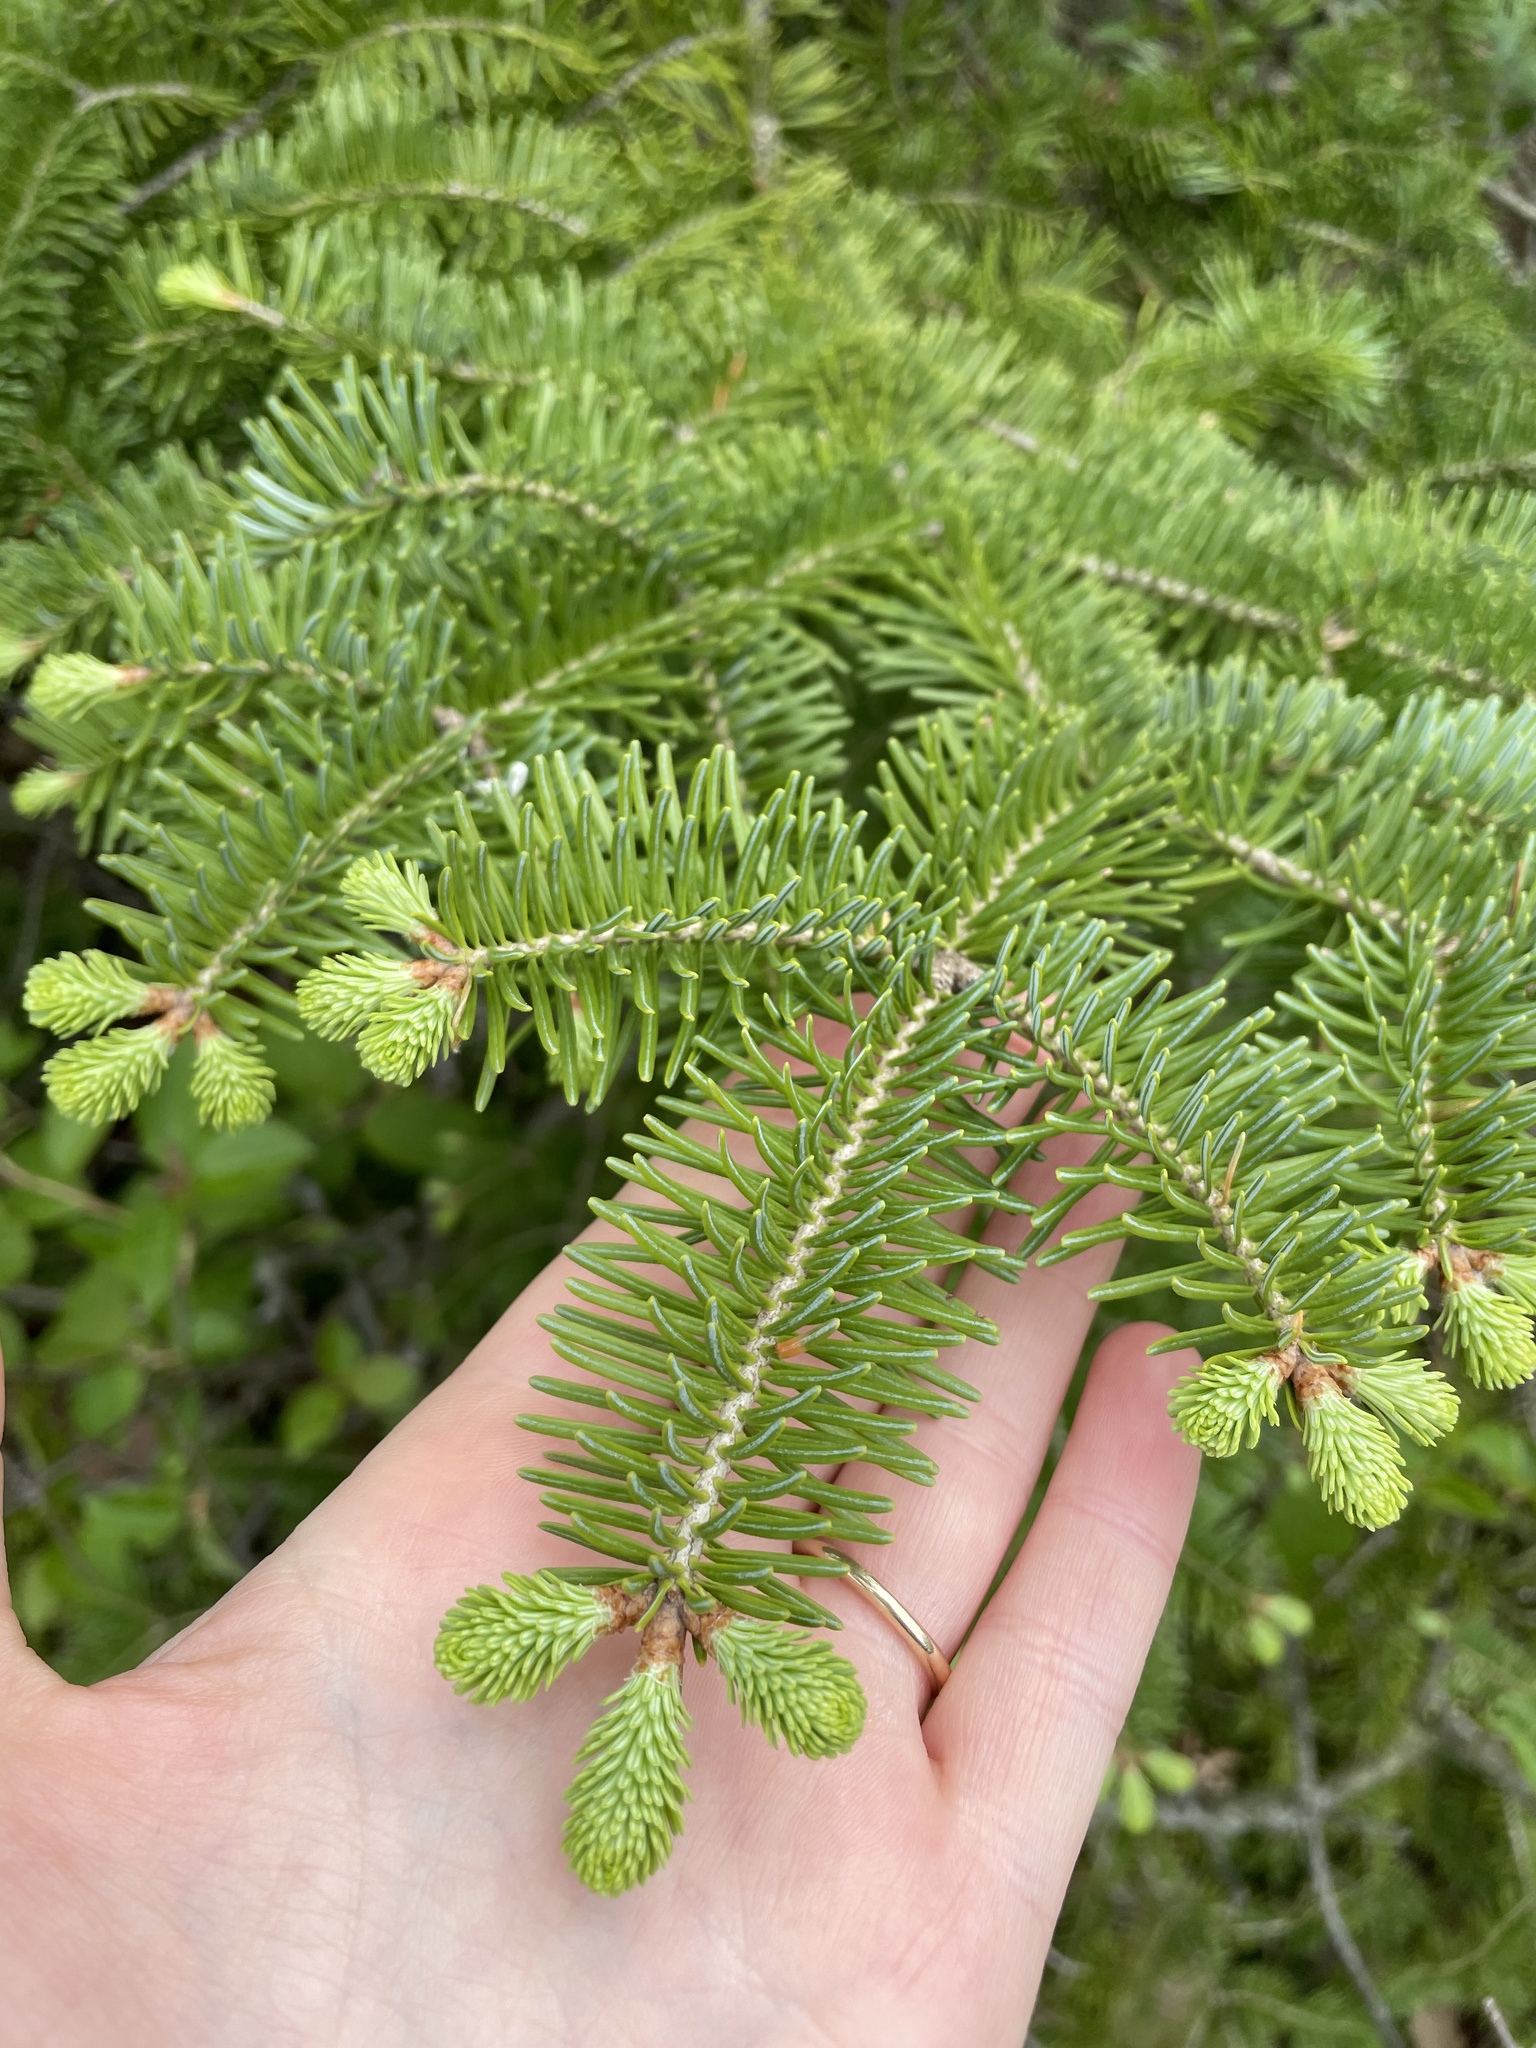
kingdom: Plantae
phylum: Tracheophyta
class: Pinopsida
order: Pinales
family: Pinaceae
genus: Abies
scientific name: Abies balsamea
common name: Balsam fir
